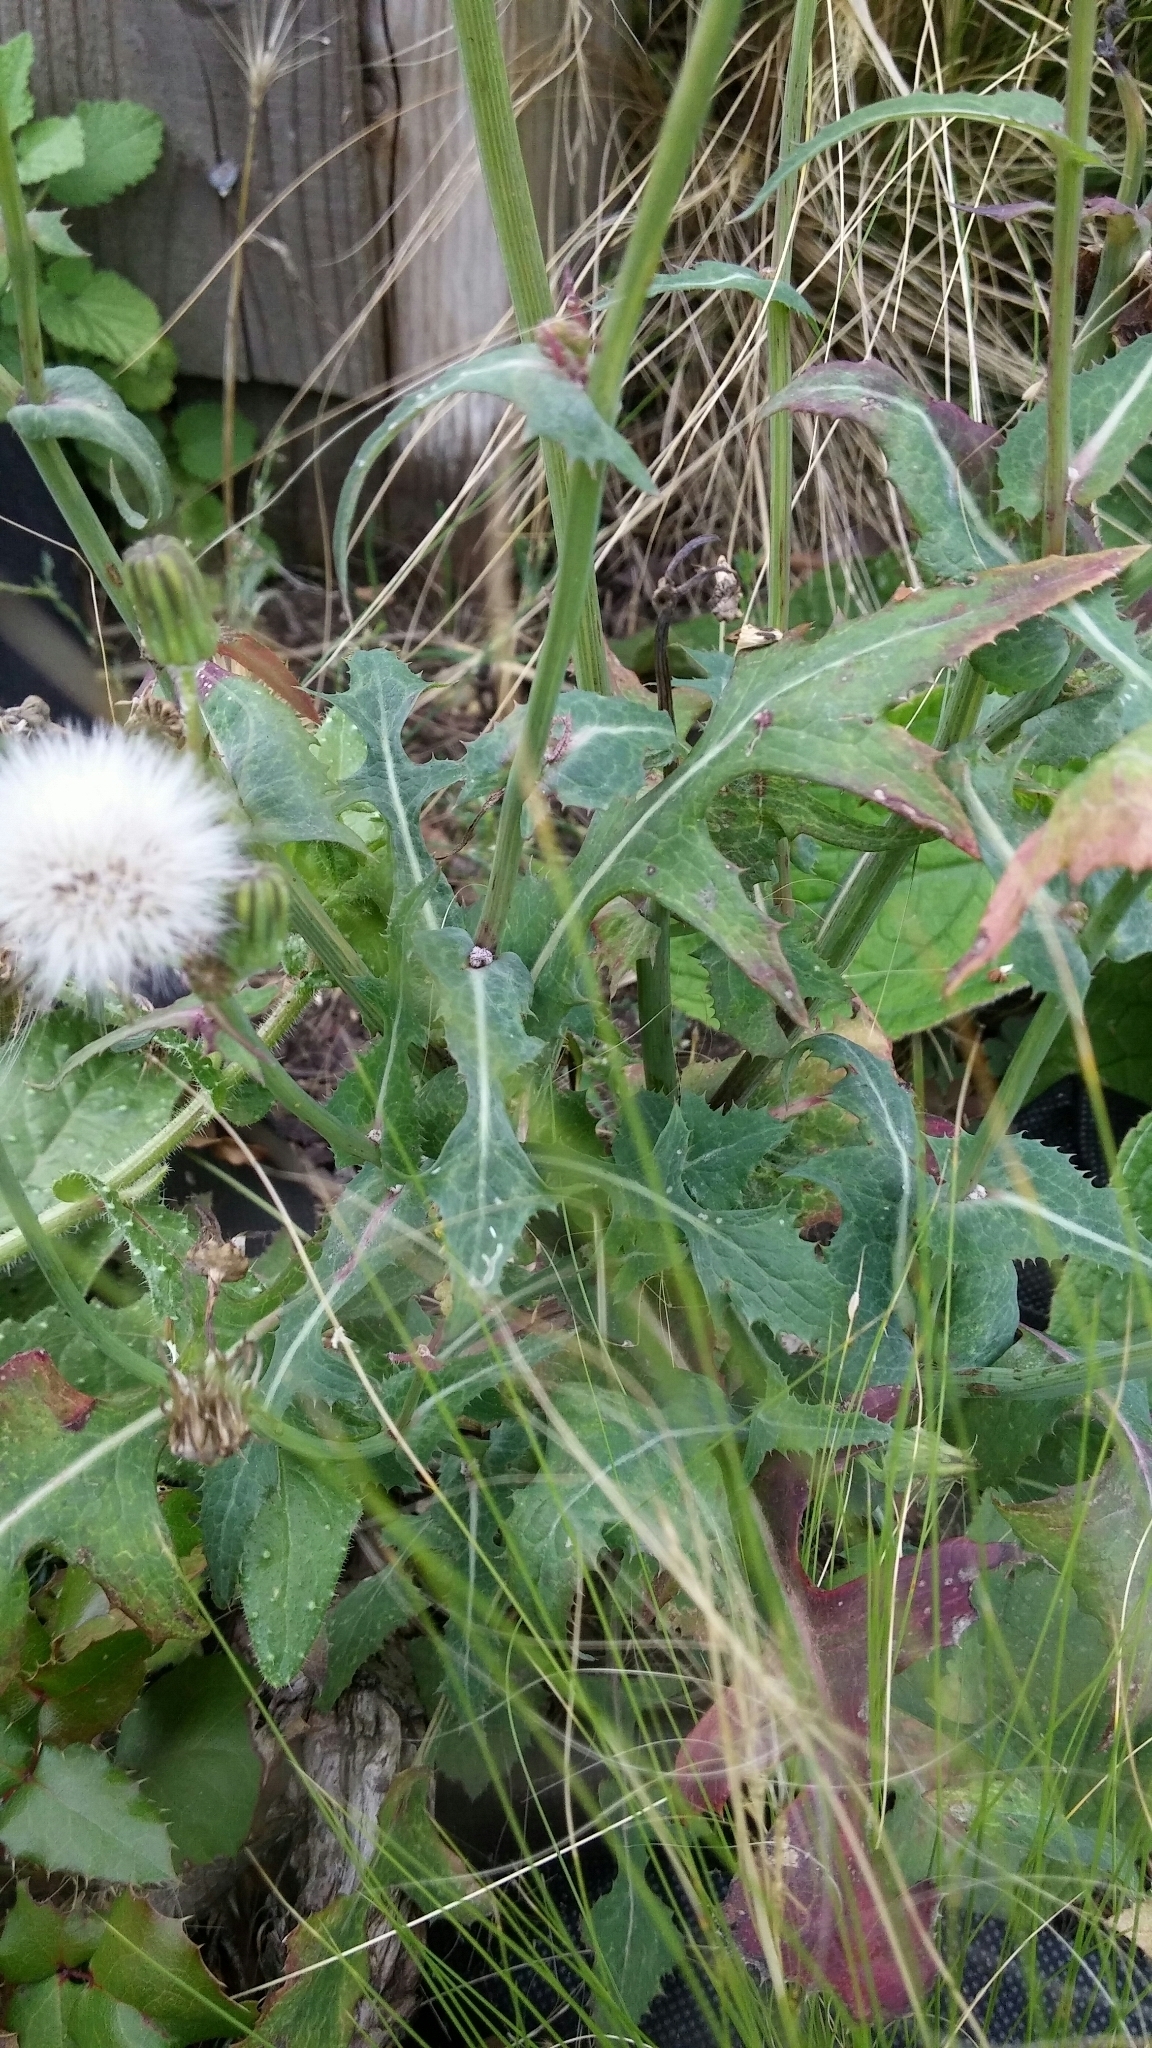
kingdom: Plantae
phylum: Tracheophyta
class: Magnoliopsida
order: Asterales
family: Asteraceae
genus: Sonchus
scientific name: Sonchus arvensis
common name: Perennial sow-thistle
